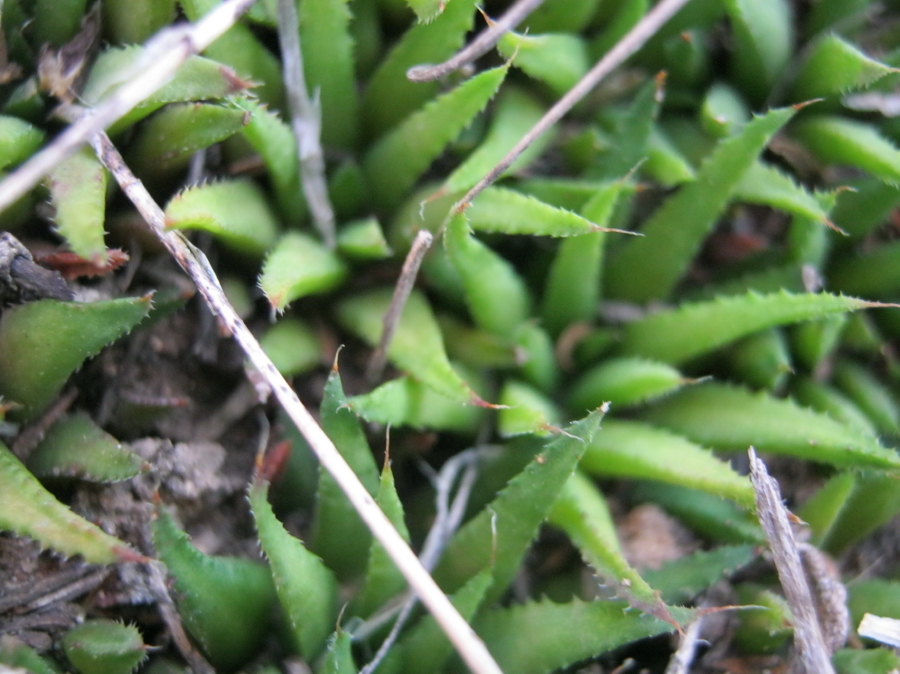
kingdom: Plantae
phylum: Tracheophyta
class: Liliopsida
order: Asparagales
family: Asphodelaceae
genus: Haworthia
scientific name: Haworthia chloracantha
